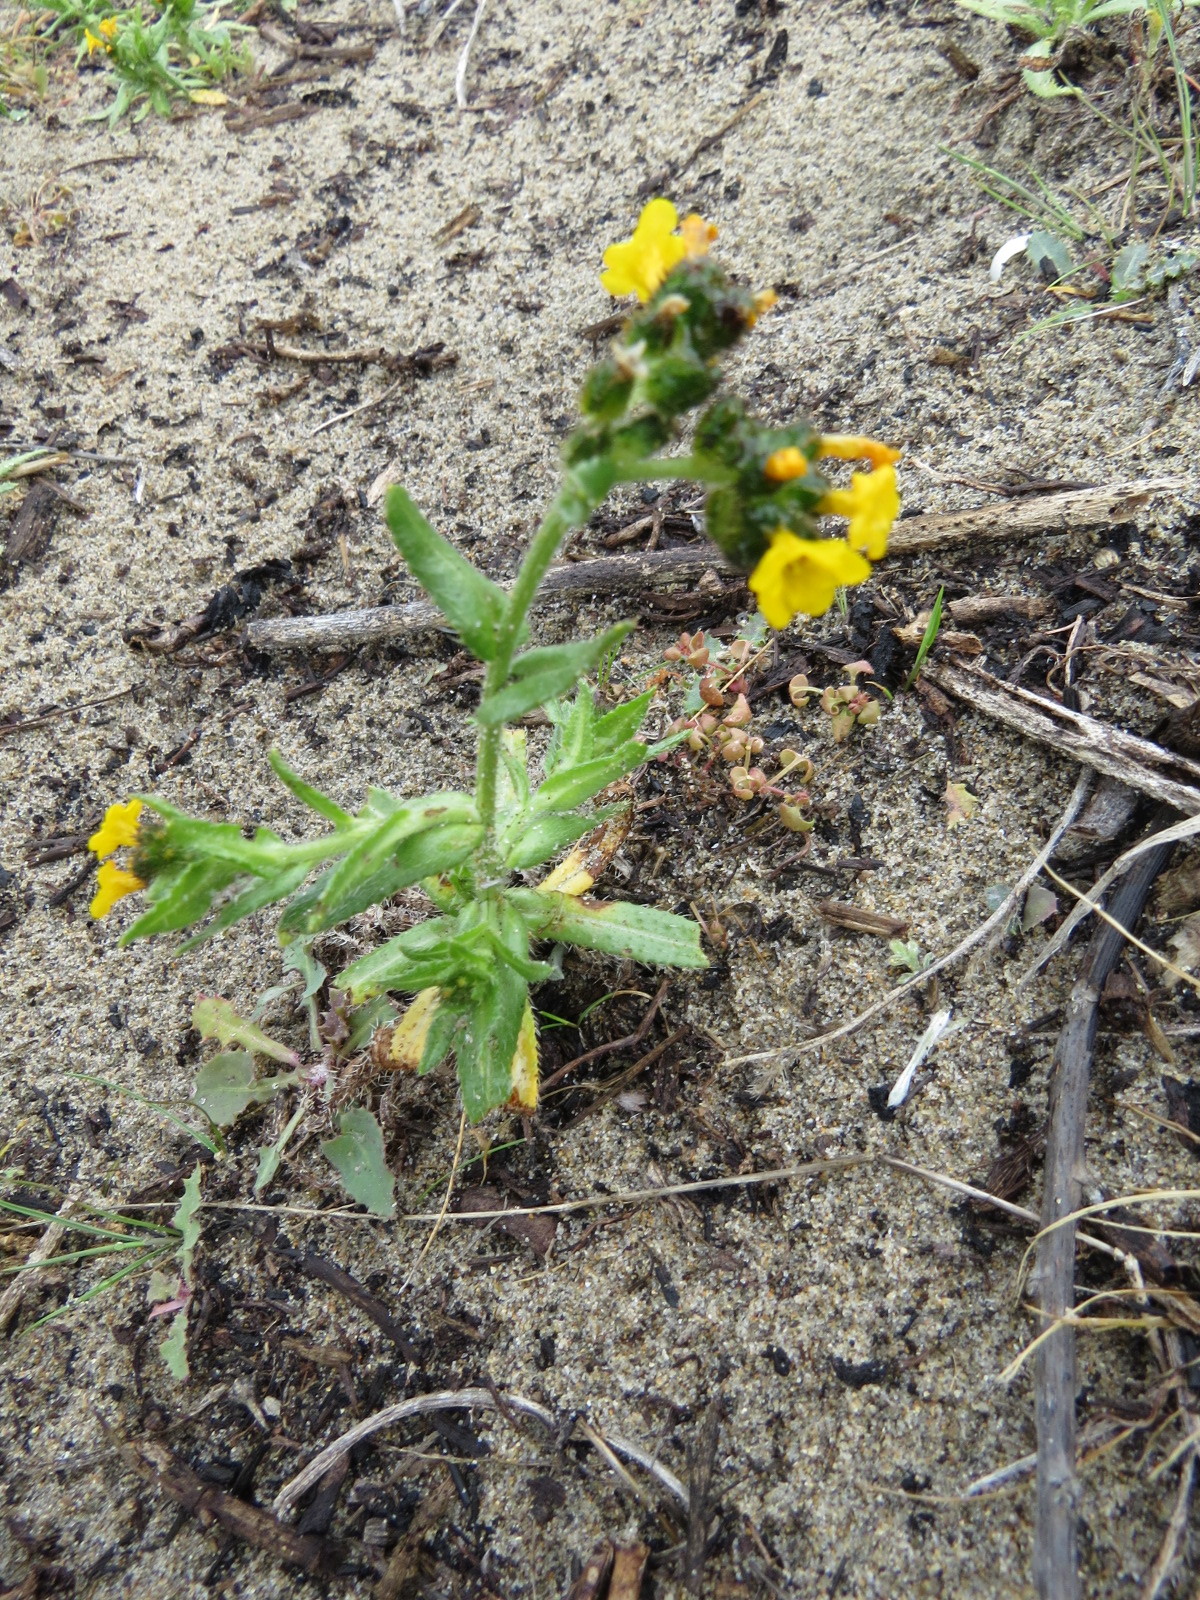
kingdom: Plantae
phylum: Tracheophyta
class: Magnoliopsida
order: Boraginales
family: Boraginaceae
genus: Amsinckia
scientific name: Amsinckia spectabilis
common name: Seaside fiddleneck
